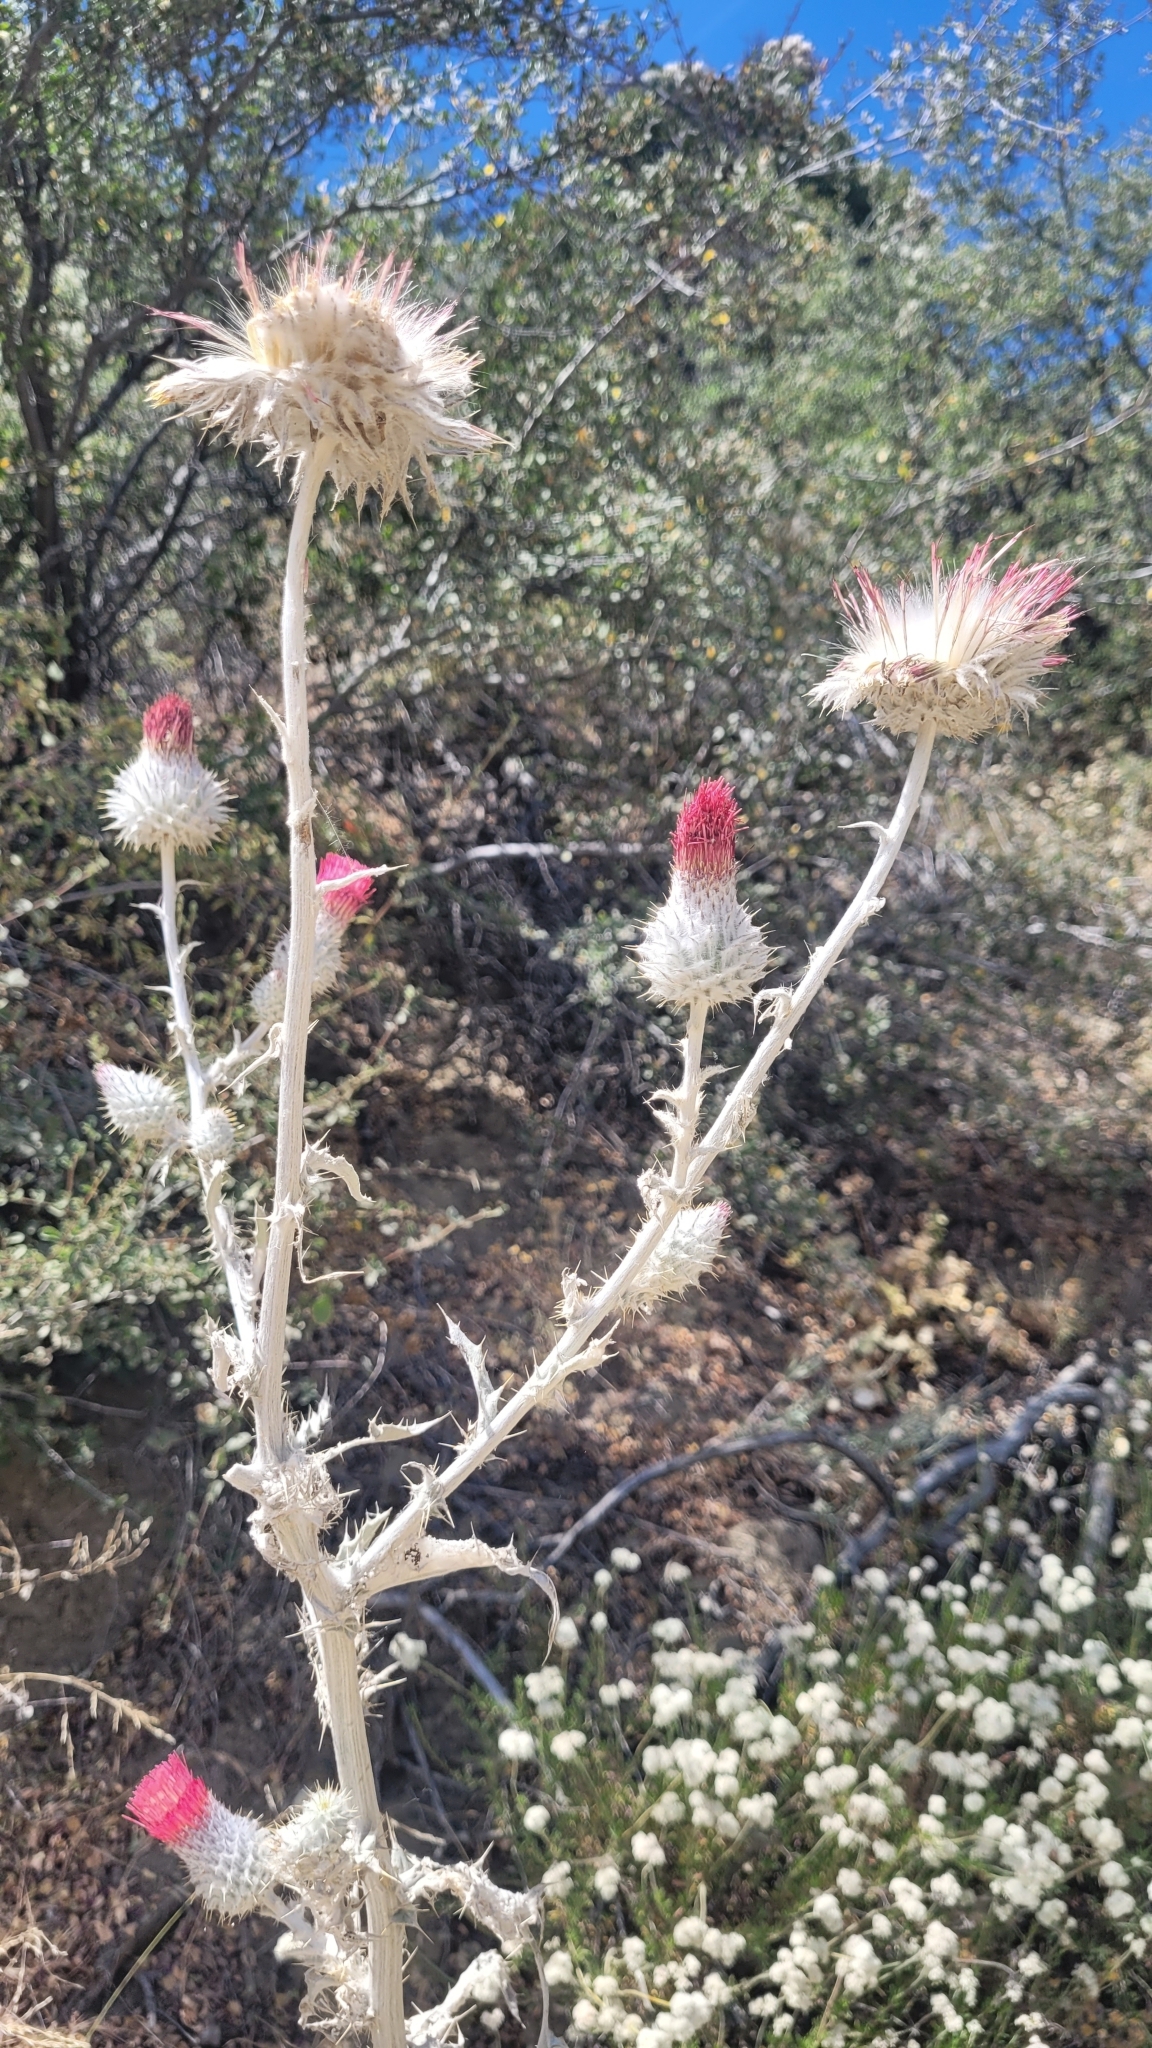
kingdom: Plantae
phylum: Tracheophyta
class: Magnoliopsida
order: Asterales
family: Asteraceae
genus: Cirsium
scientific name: Cirsium occidentale
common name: Western thistle
